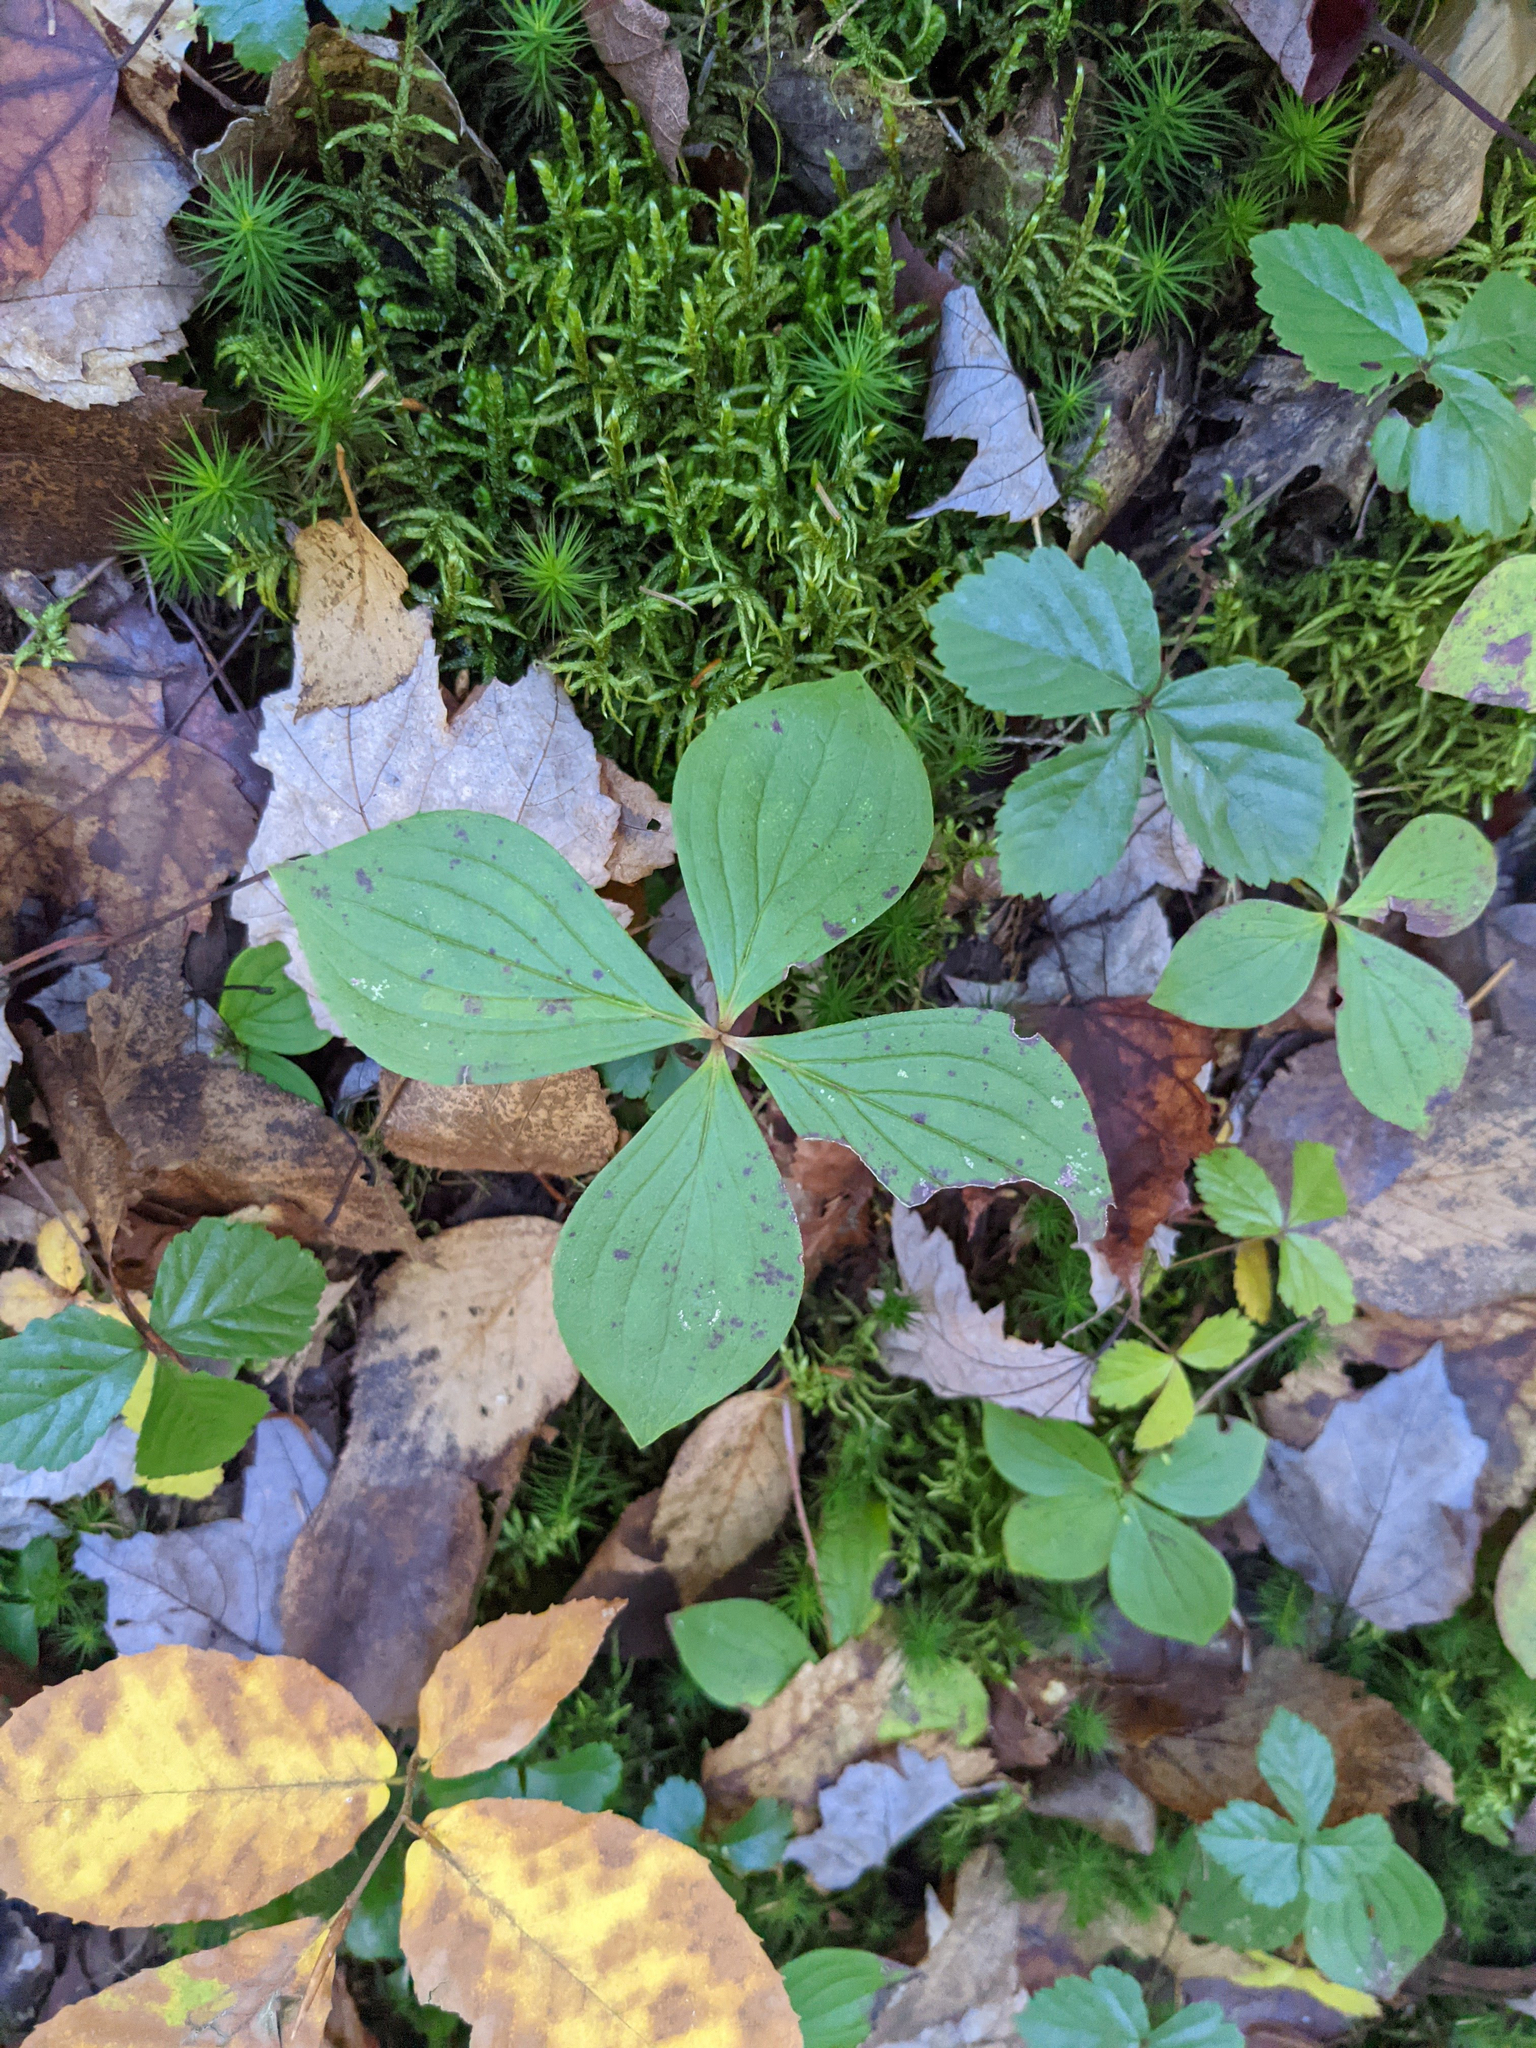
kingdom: Plantae
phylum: Tracheophyta
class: Magnoliopsida
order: Cornales
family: Cornaceae
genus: Cornus
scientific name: Cornus canadensis
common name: Creeping dogwood
